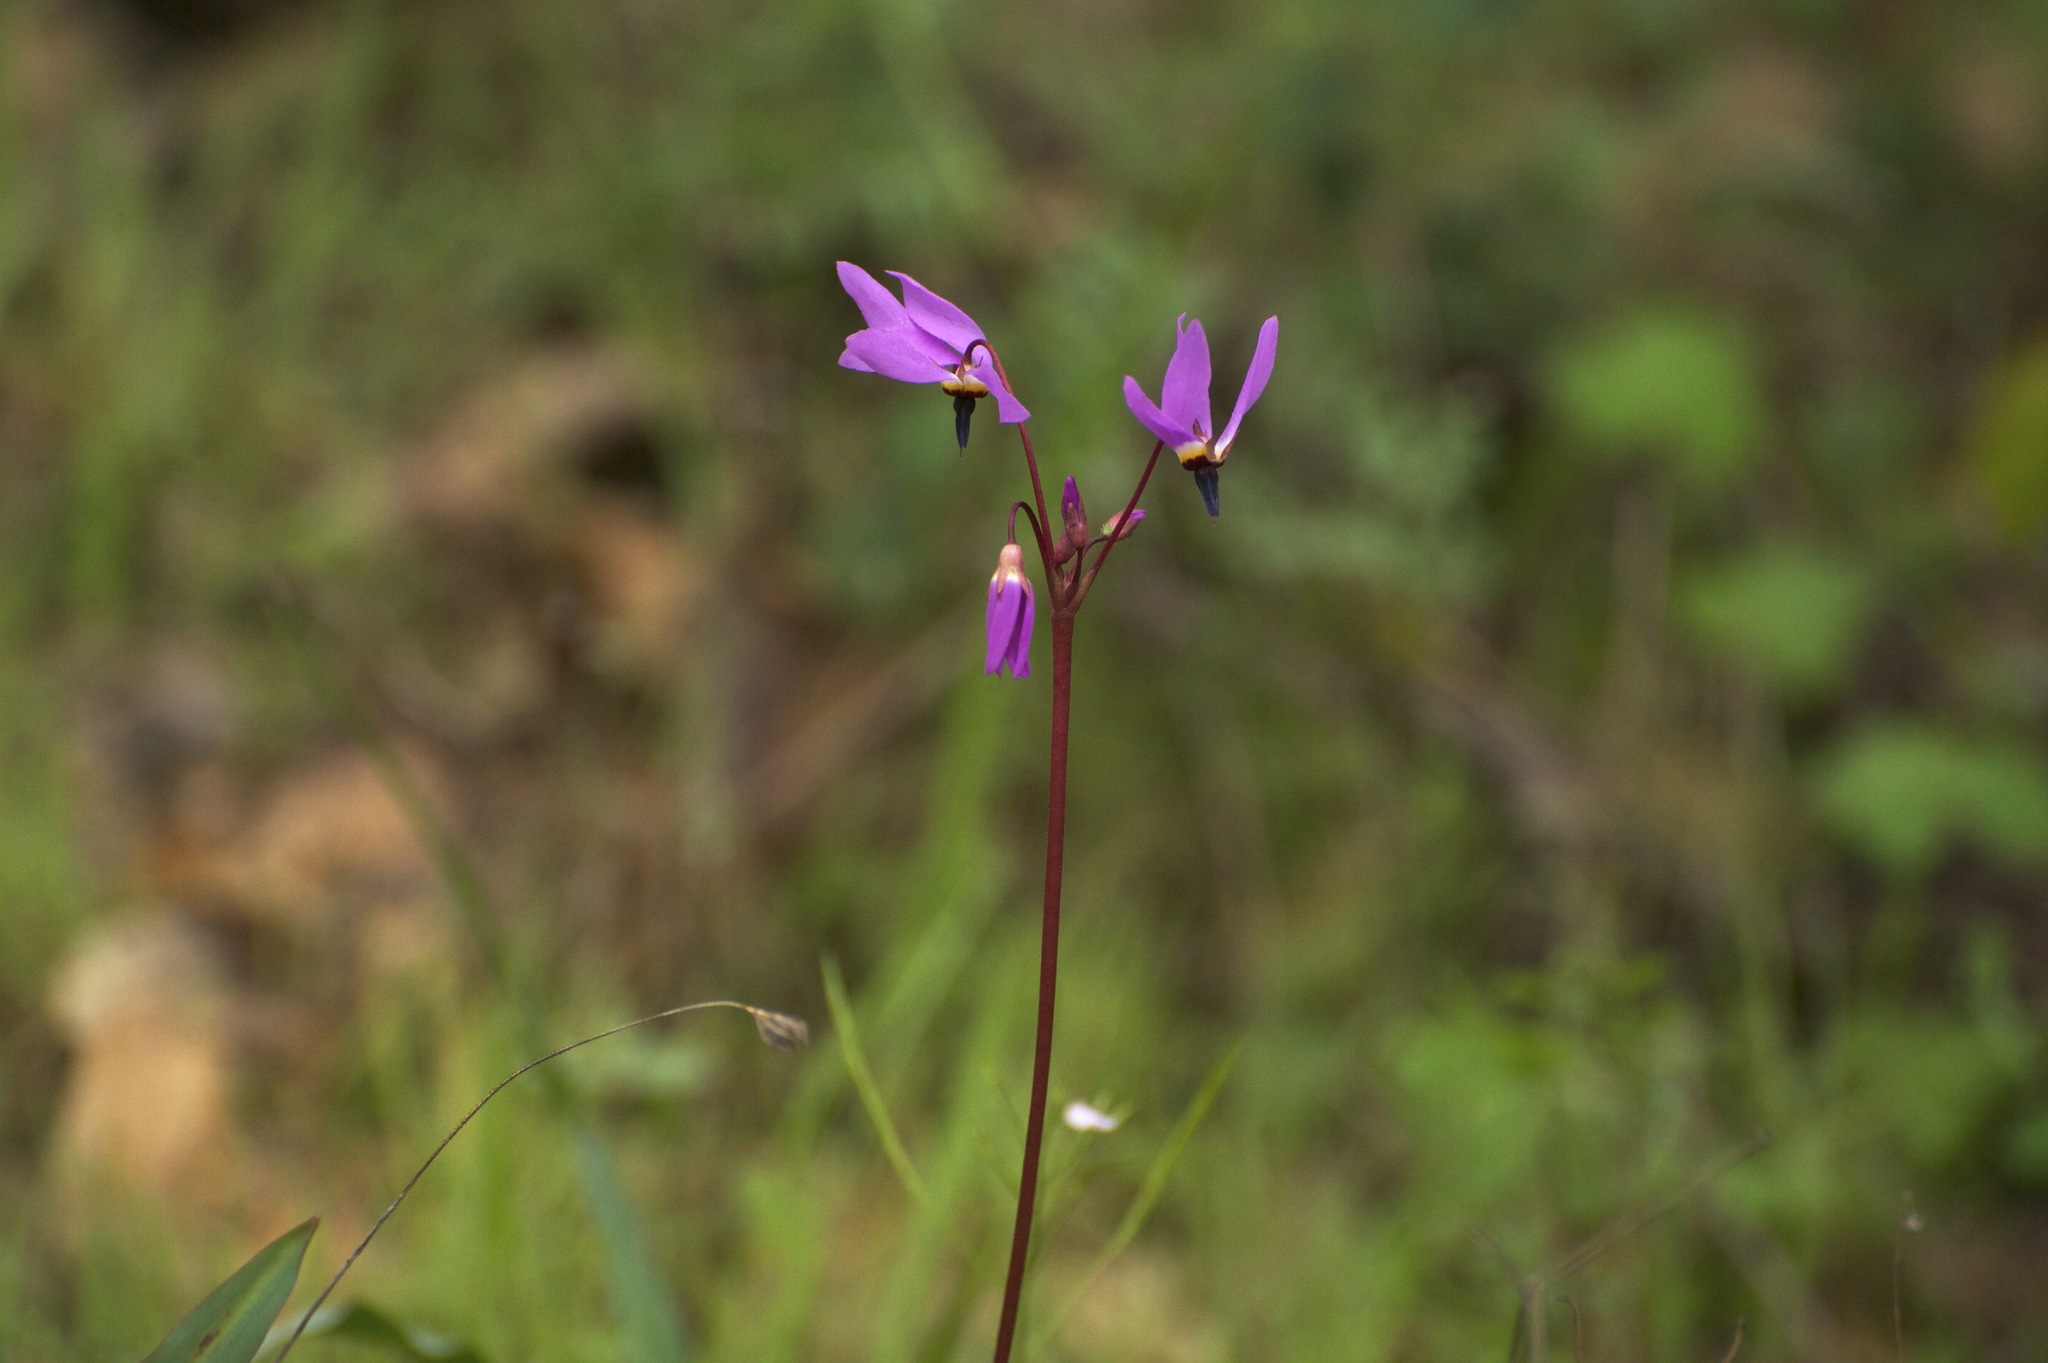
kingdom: Plantae
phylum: Tracheophyta
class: Magnoliopsida
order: Ericales
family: Primulaceae
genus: Dodecatheon
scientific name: Dodecatheon hendersonii
